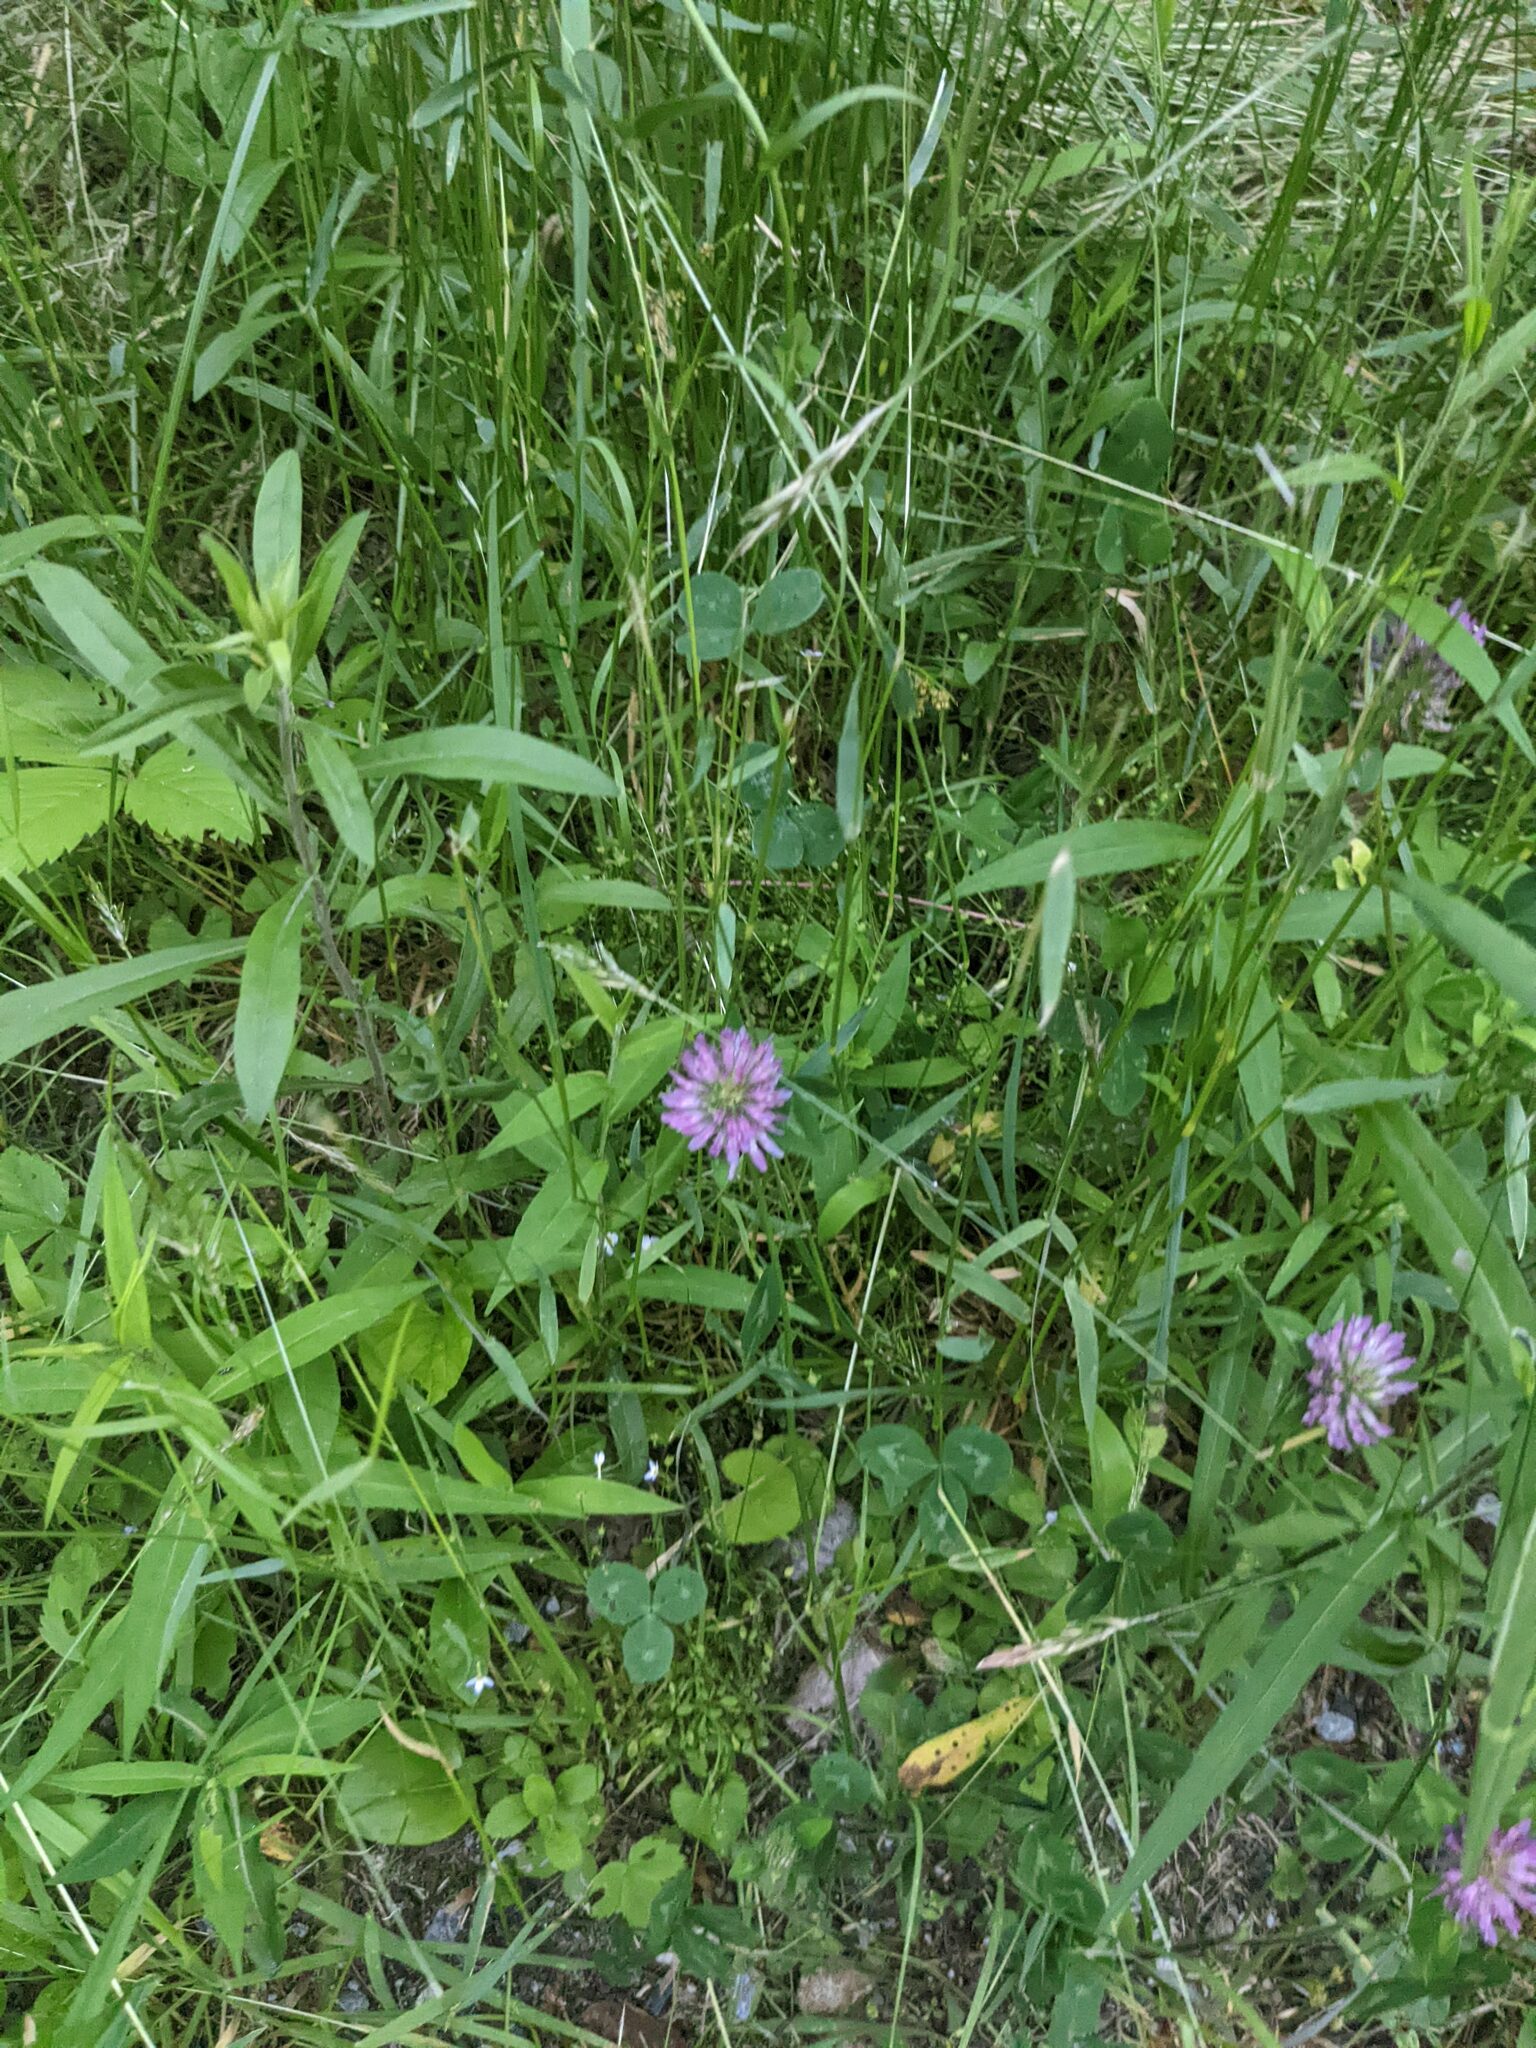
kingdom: Plantae
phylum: Tracheophyta
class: Magnoliopsida
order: Fabales
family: Fabaceae
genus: Trifolium
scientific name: Trifolium pratense
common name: Red clover
